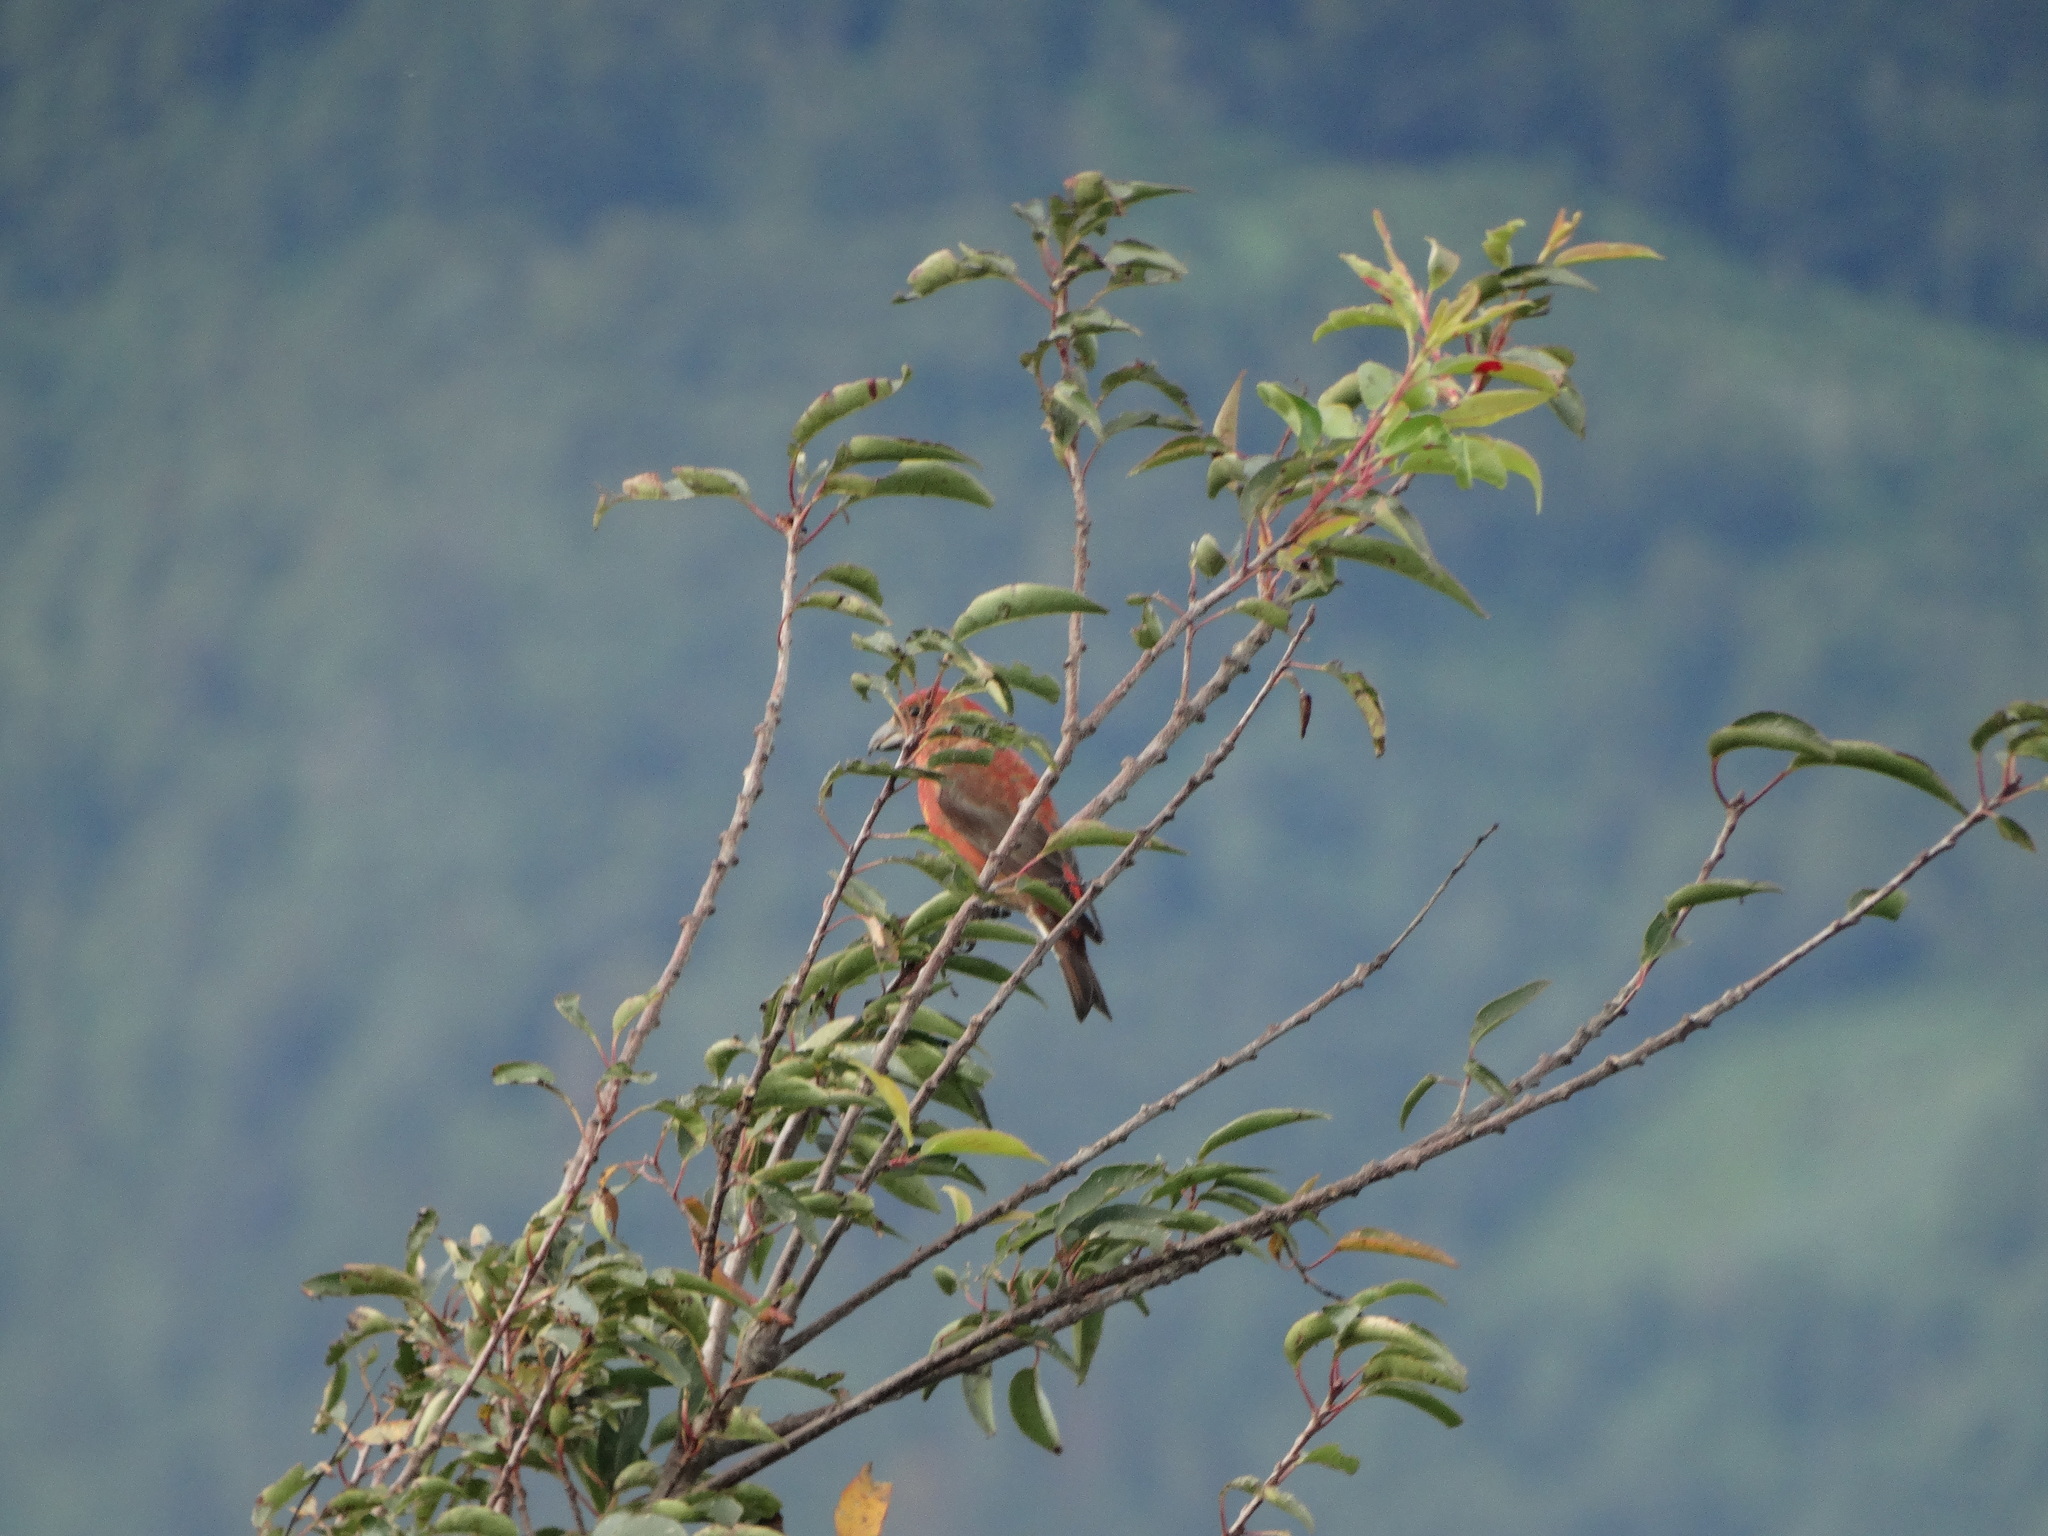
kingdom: Animalia
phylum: Chordata
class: Aves
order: Passeriformes
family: Fringillidae
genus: Loxia
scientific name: Loxia curvirostra
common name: Red crossbill
